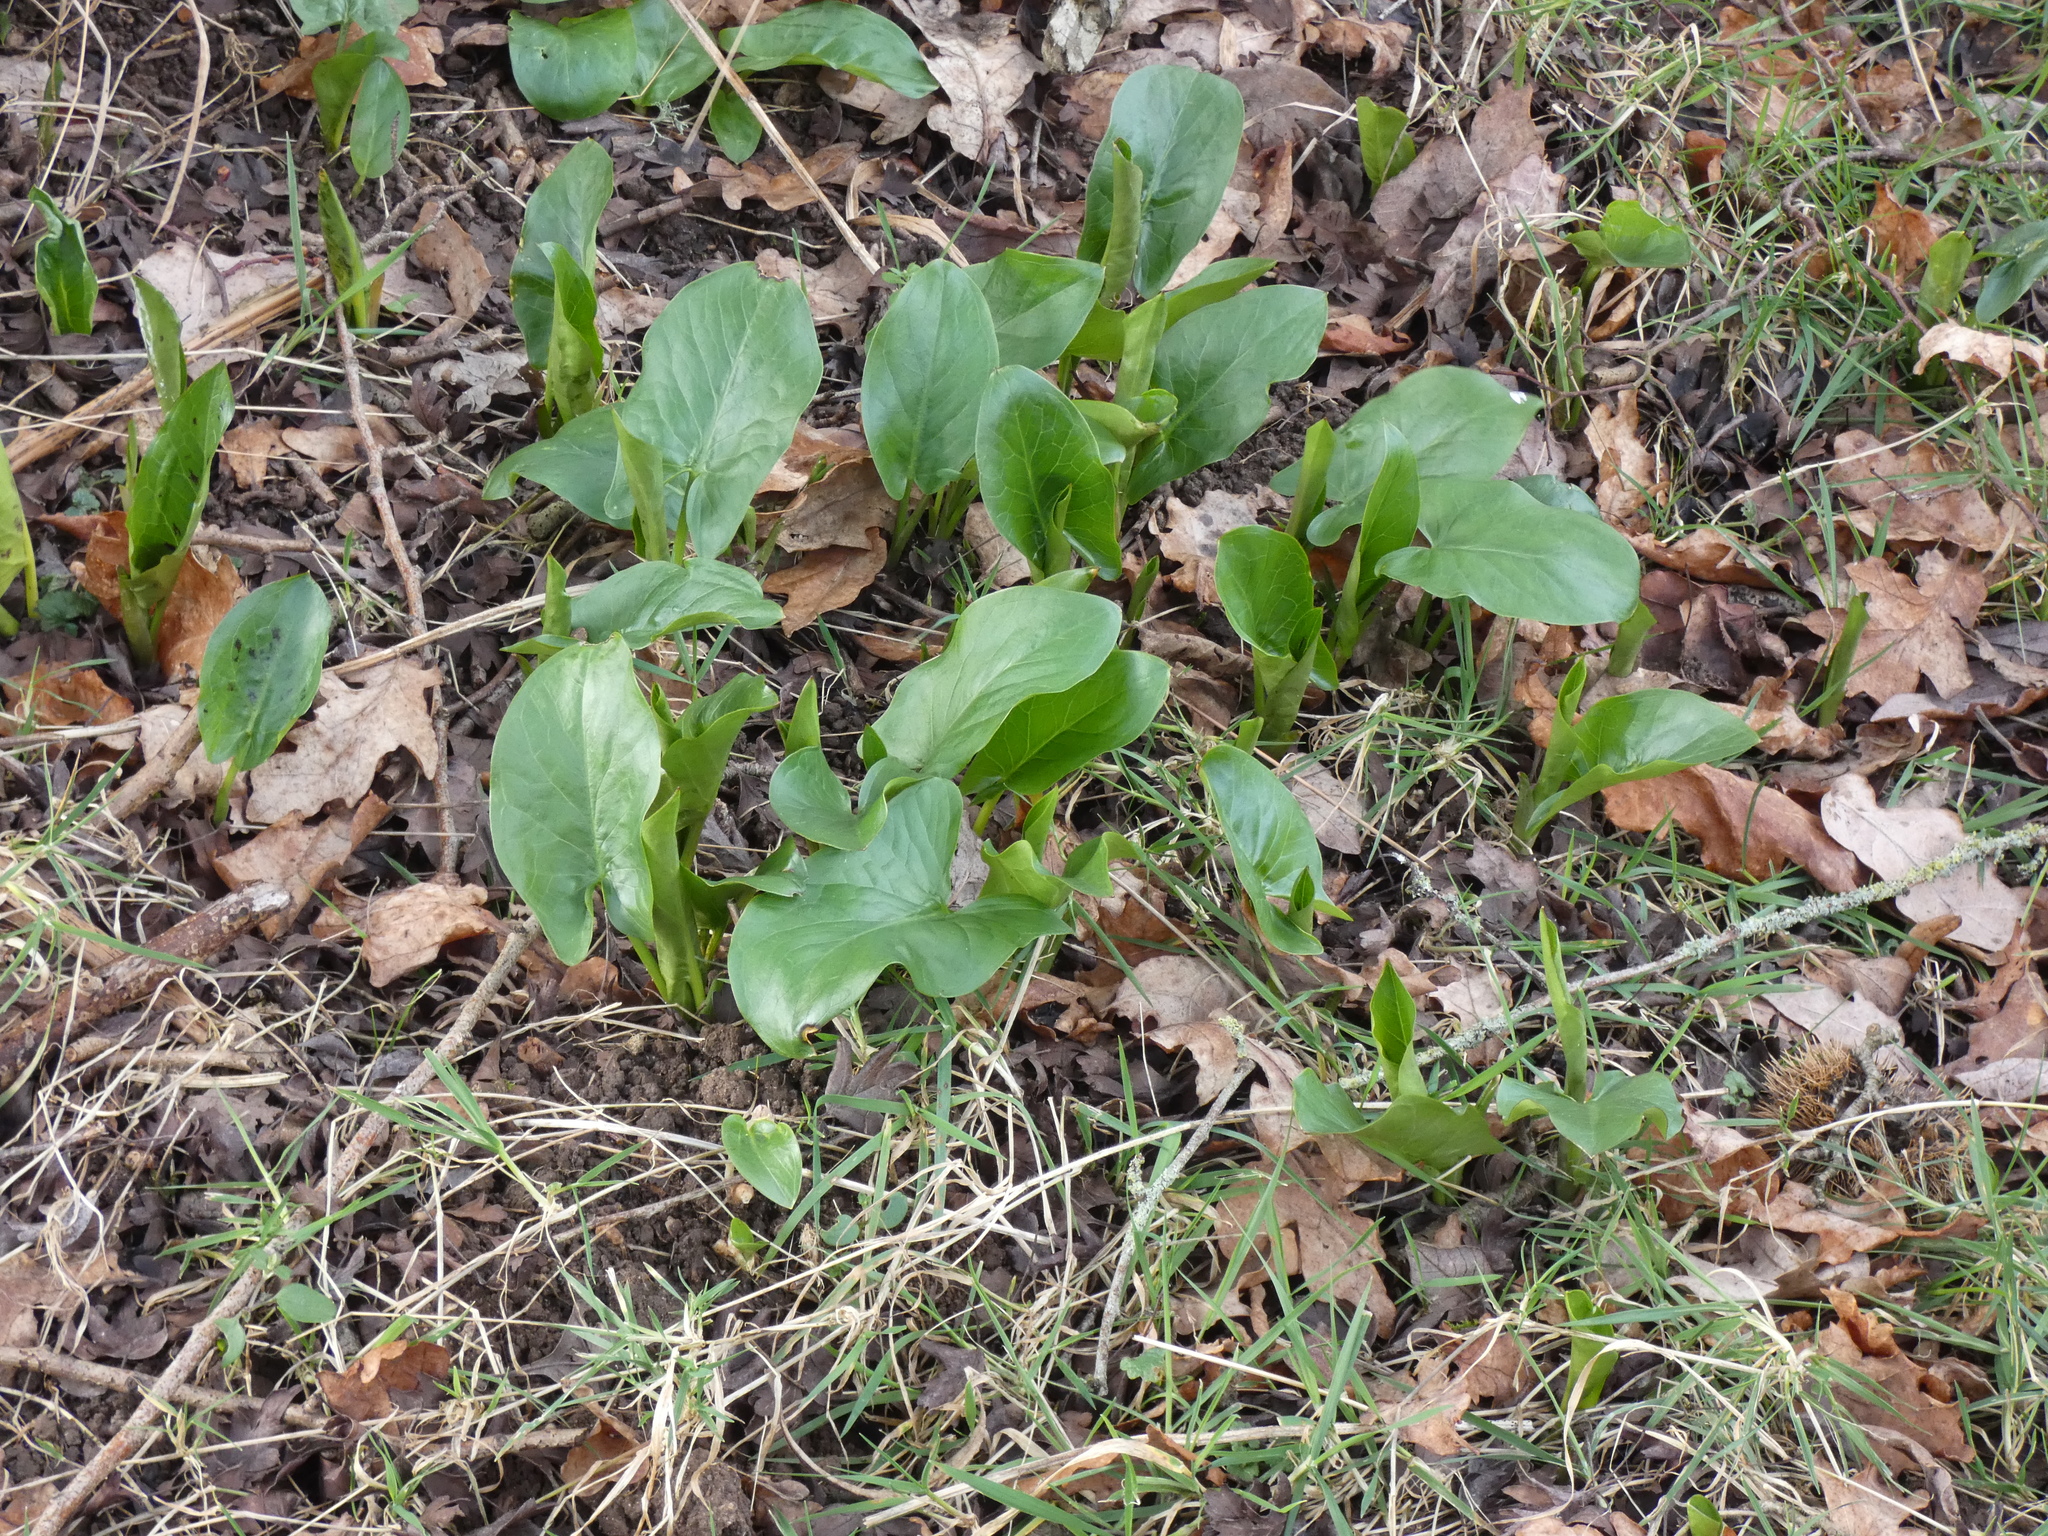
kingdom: Plantae
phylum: Tracheophyta
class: Liliopsida
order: Alismatales
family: Araceae
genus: Arum
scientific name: Arum maculatum
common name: Lords-and-ladies
